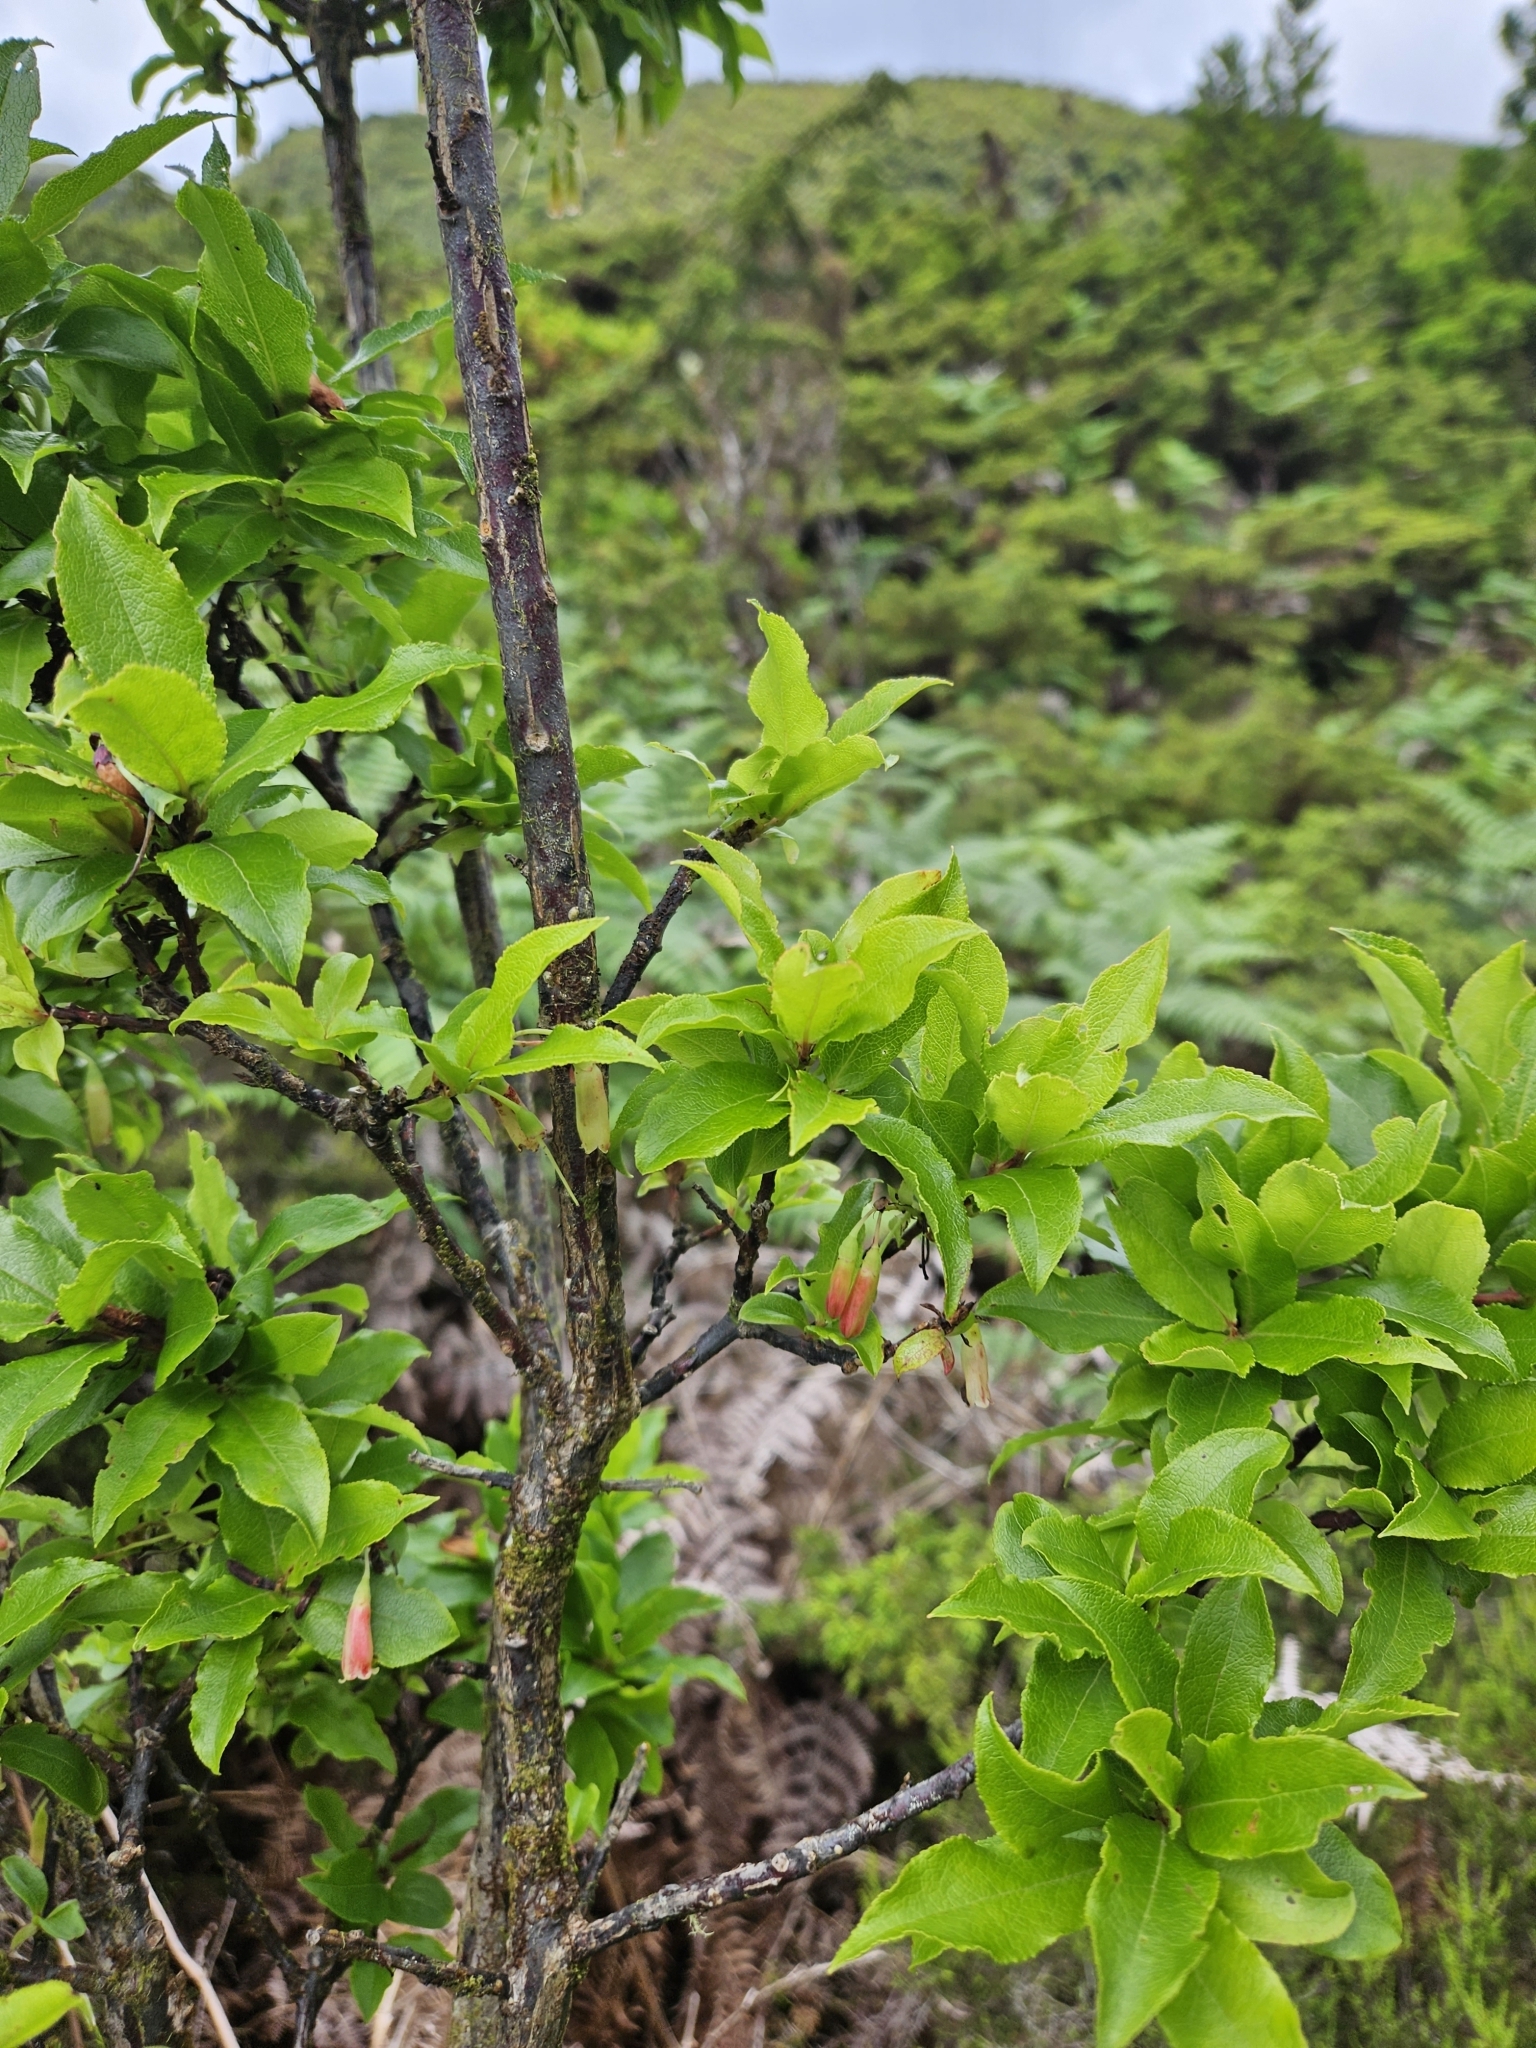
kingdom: Plantae
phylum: Tracheophyta
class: Magnoliopsida
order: Ericales
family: Ericaceae
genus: Vaccinium
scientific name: Vaccinium cylindraceum
